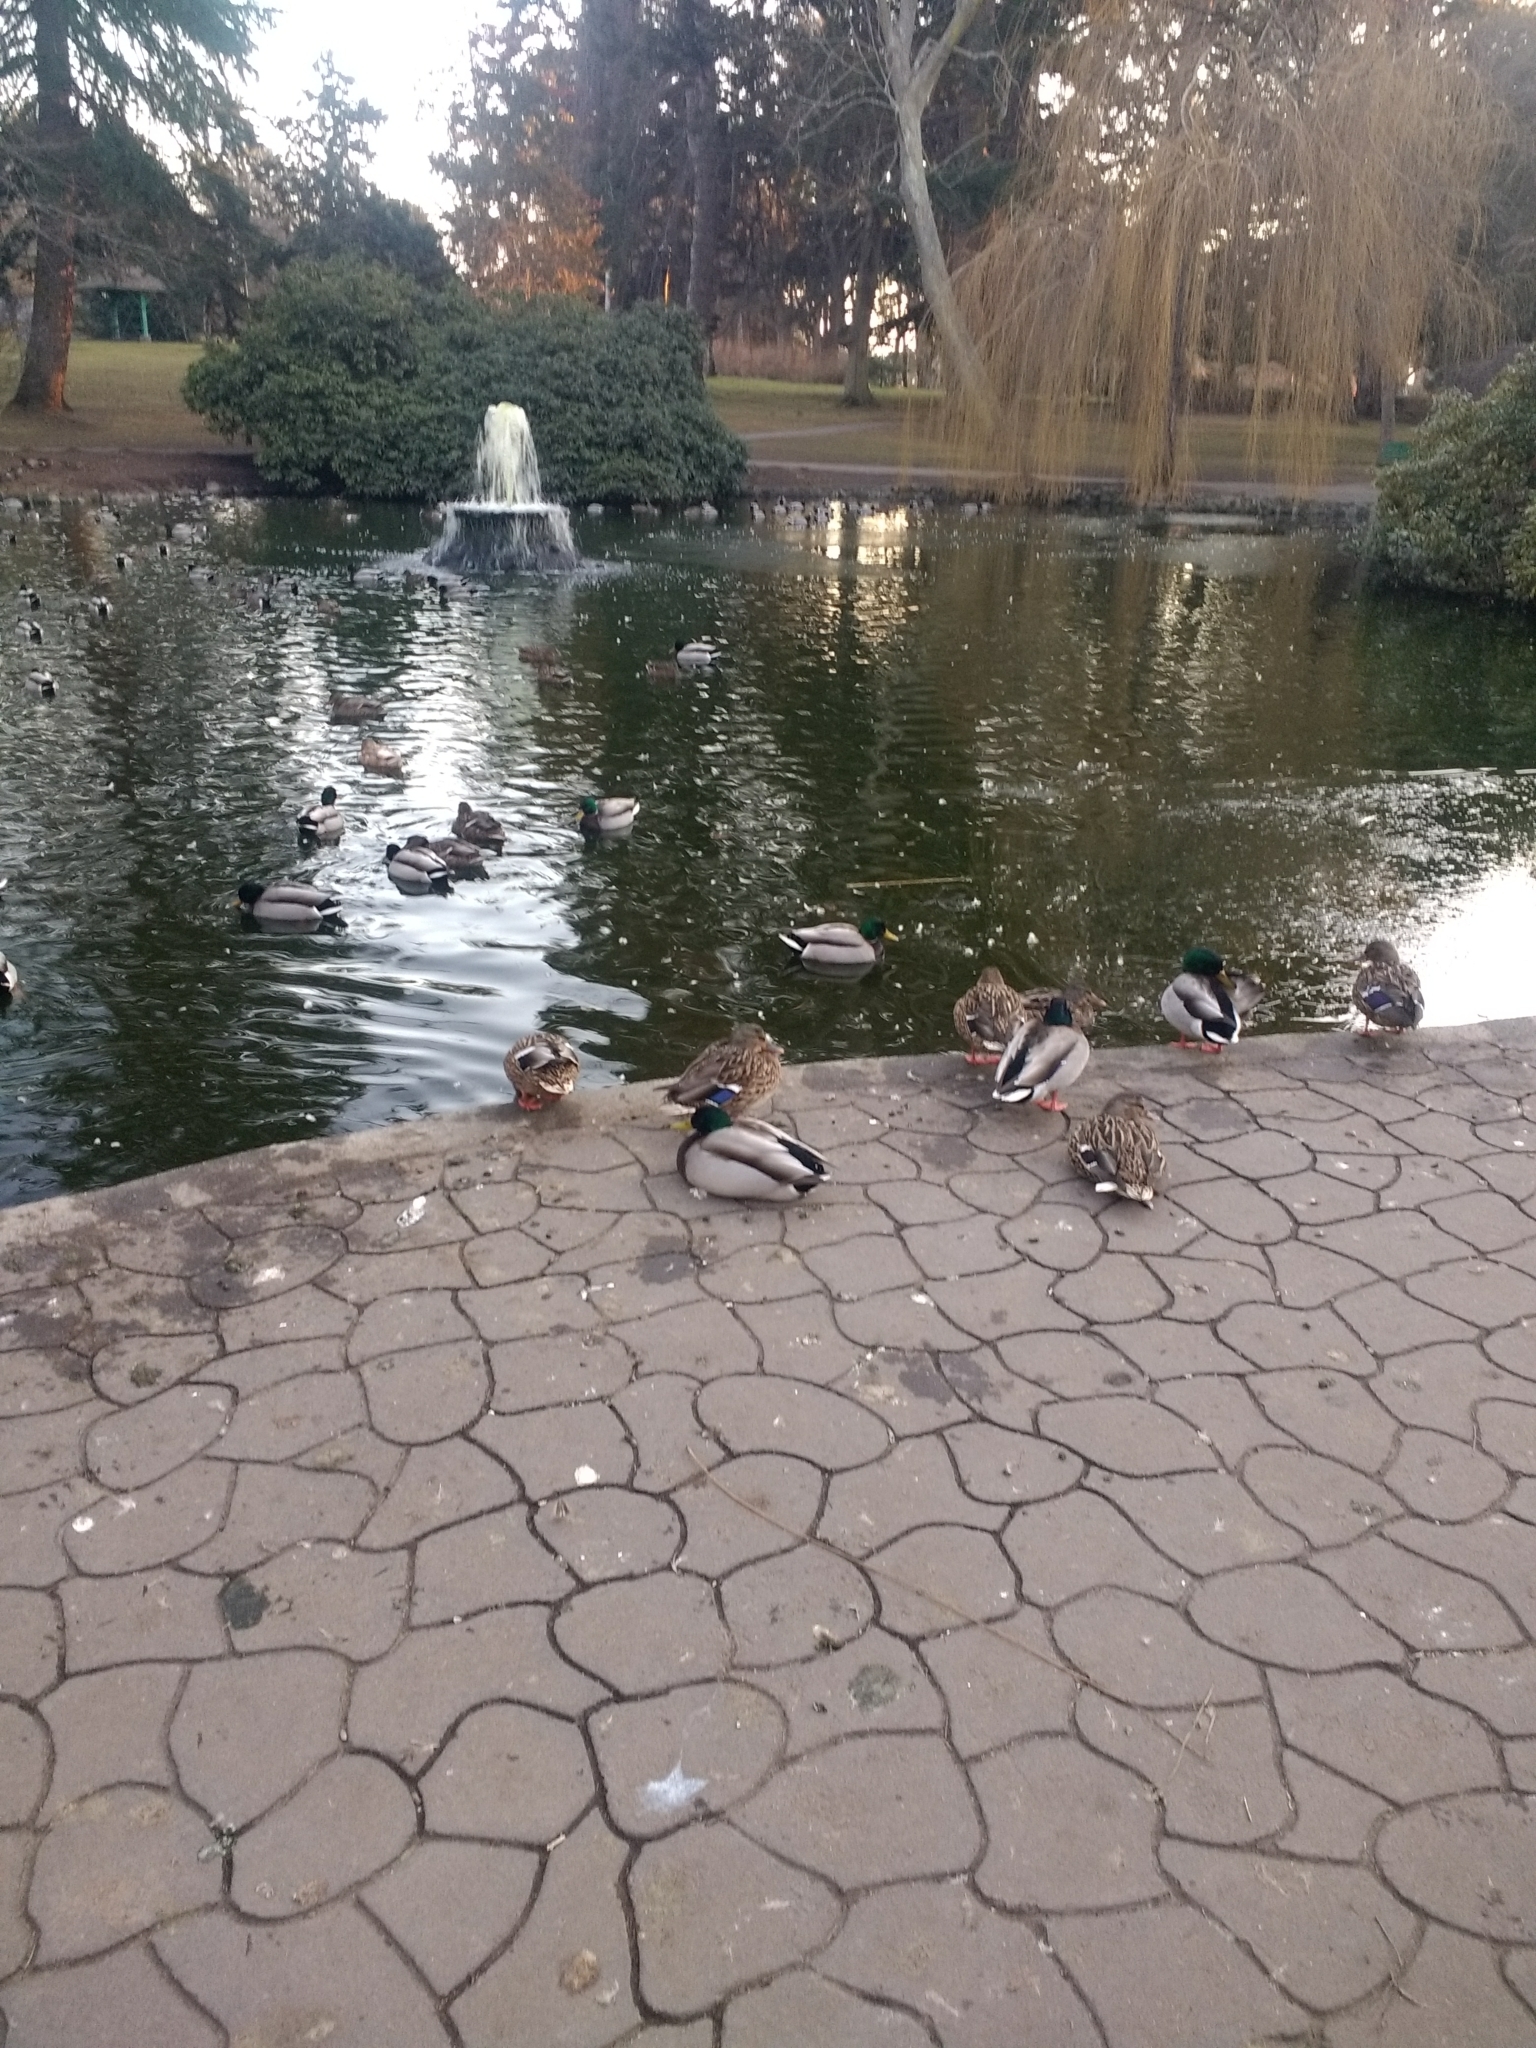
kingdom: Animalia
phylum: Chordata
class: Aves
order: Anseriformes
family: Anatidae
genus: Anas
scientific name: Anas platyrhynchos
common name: Mallard
